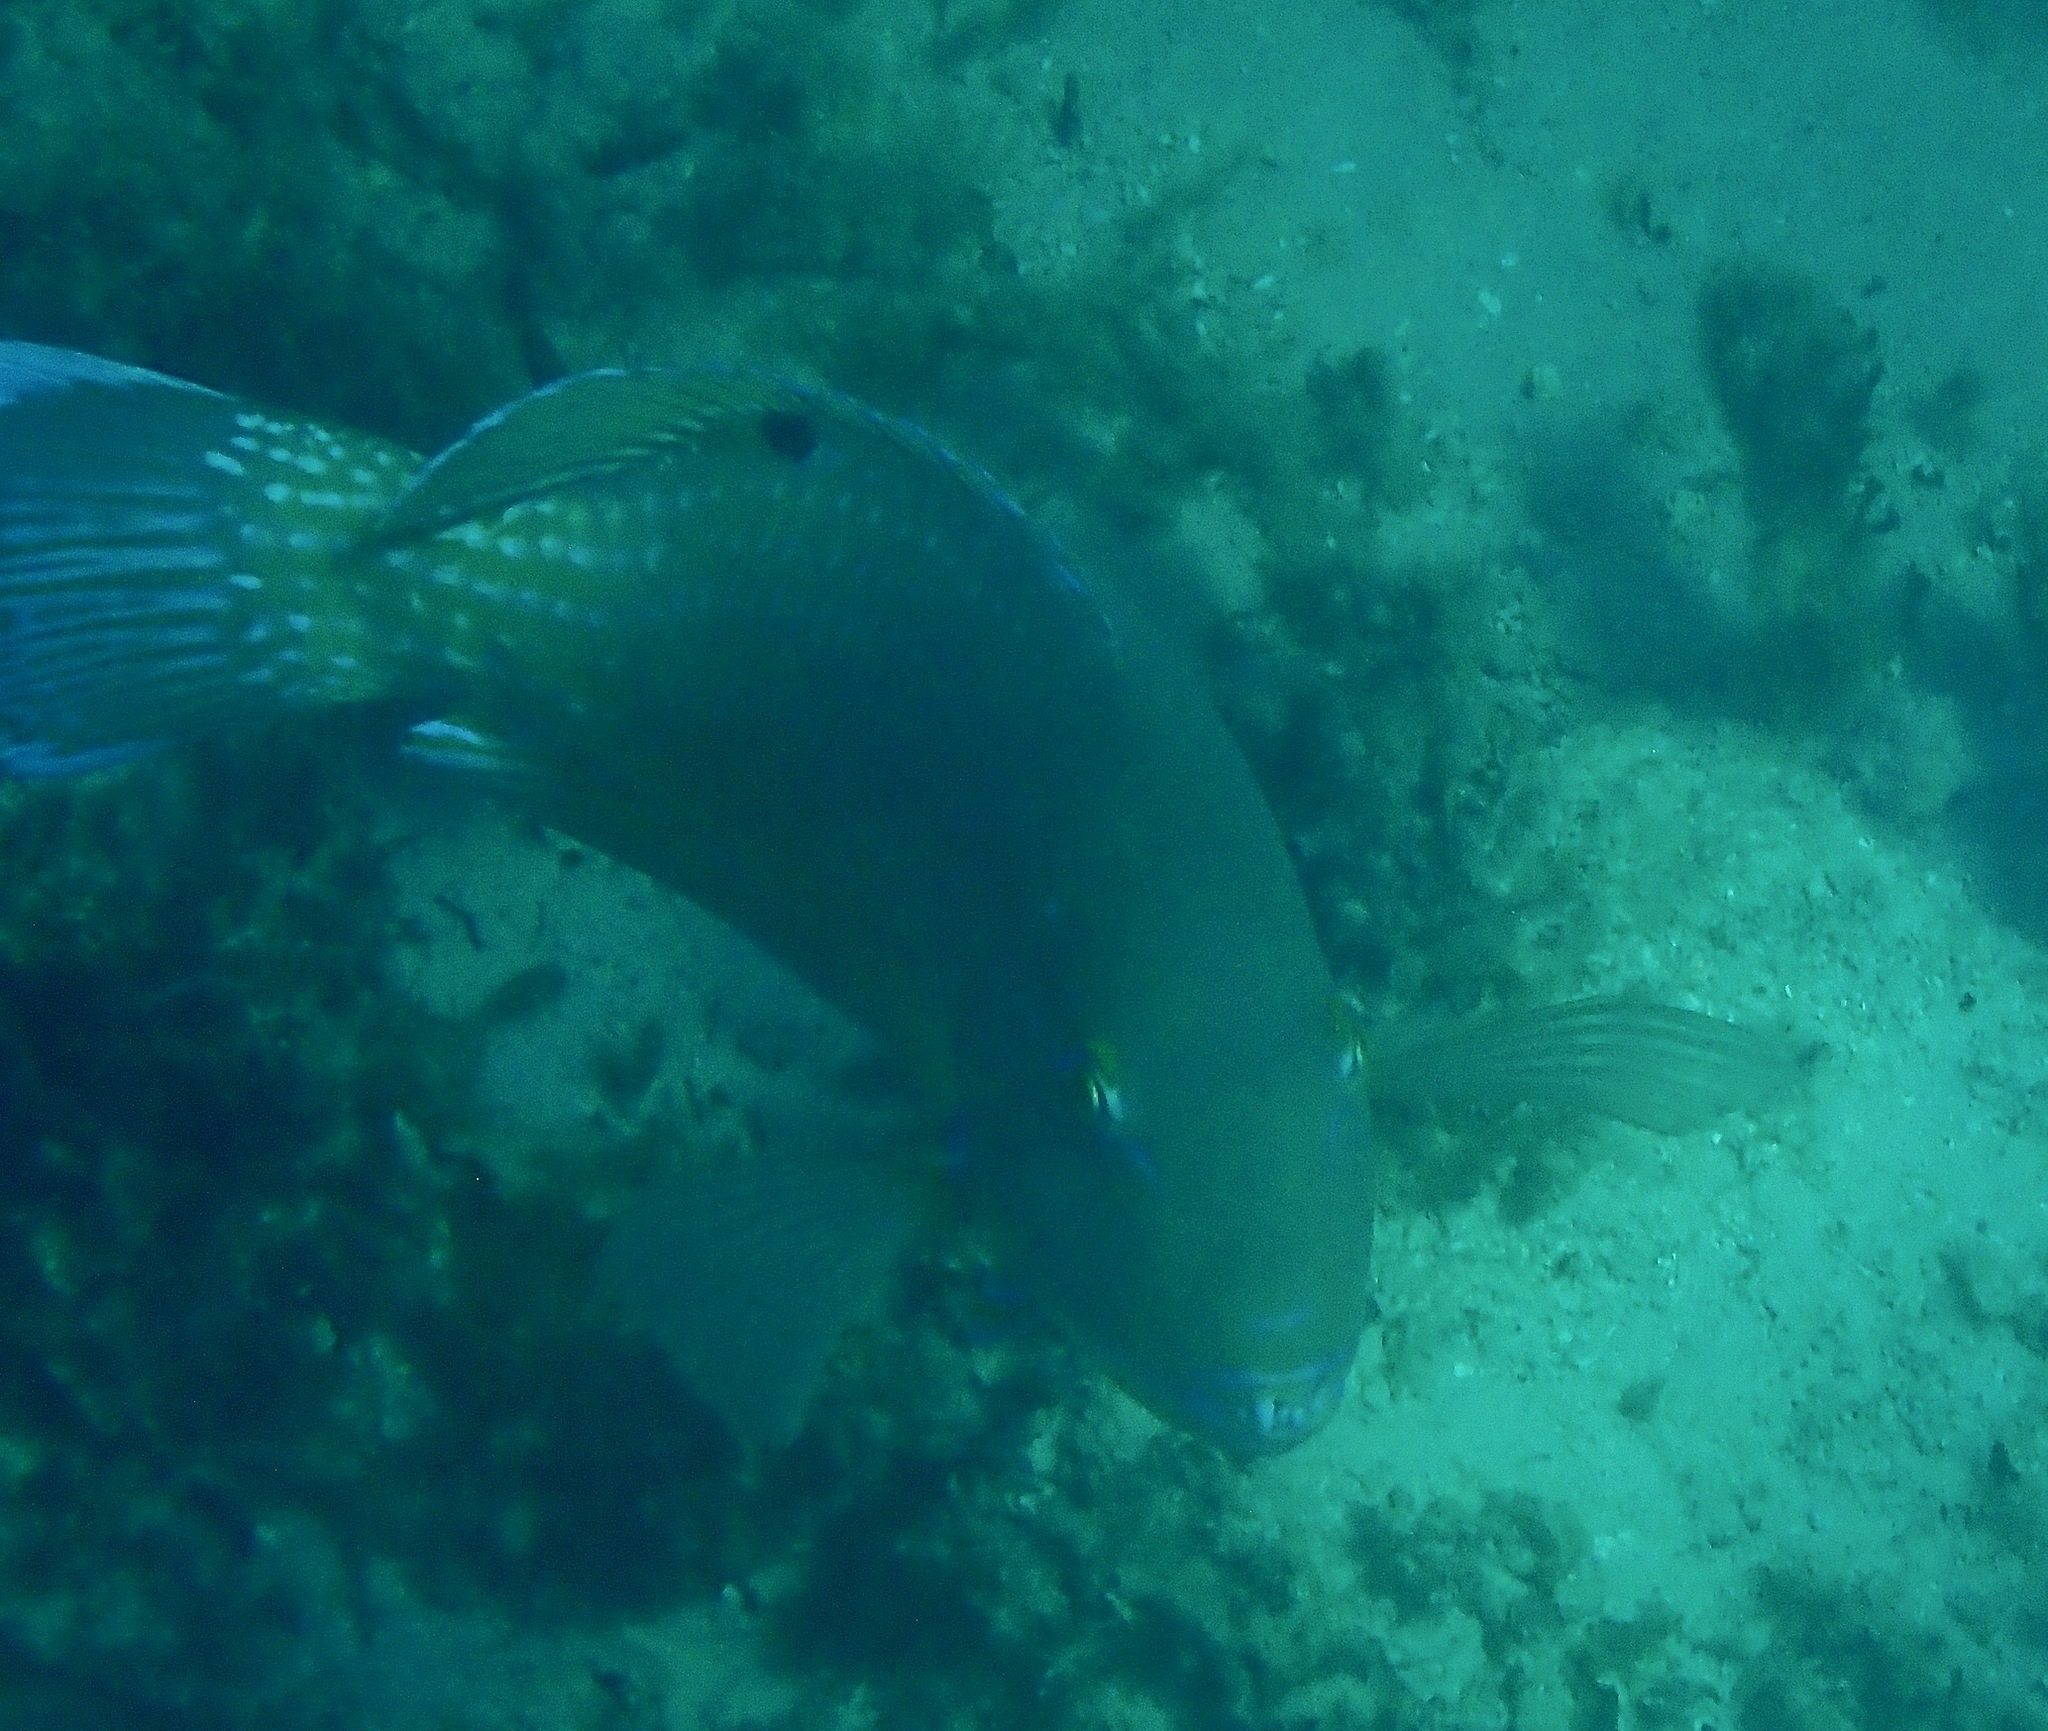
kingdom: Animalia
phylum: Chordata
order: Perciformes
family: Labridae
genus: Choerodon
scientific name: Choerodon schoenleinii
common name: Blackspot tuskfish
